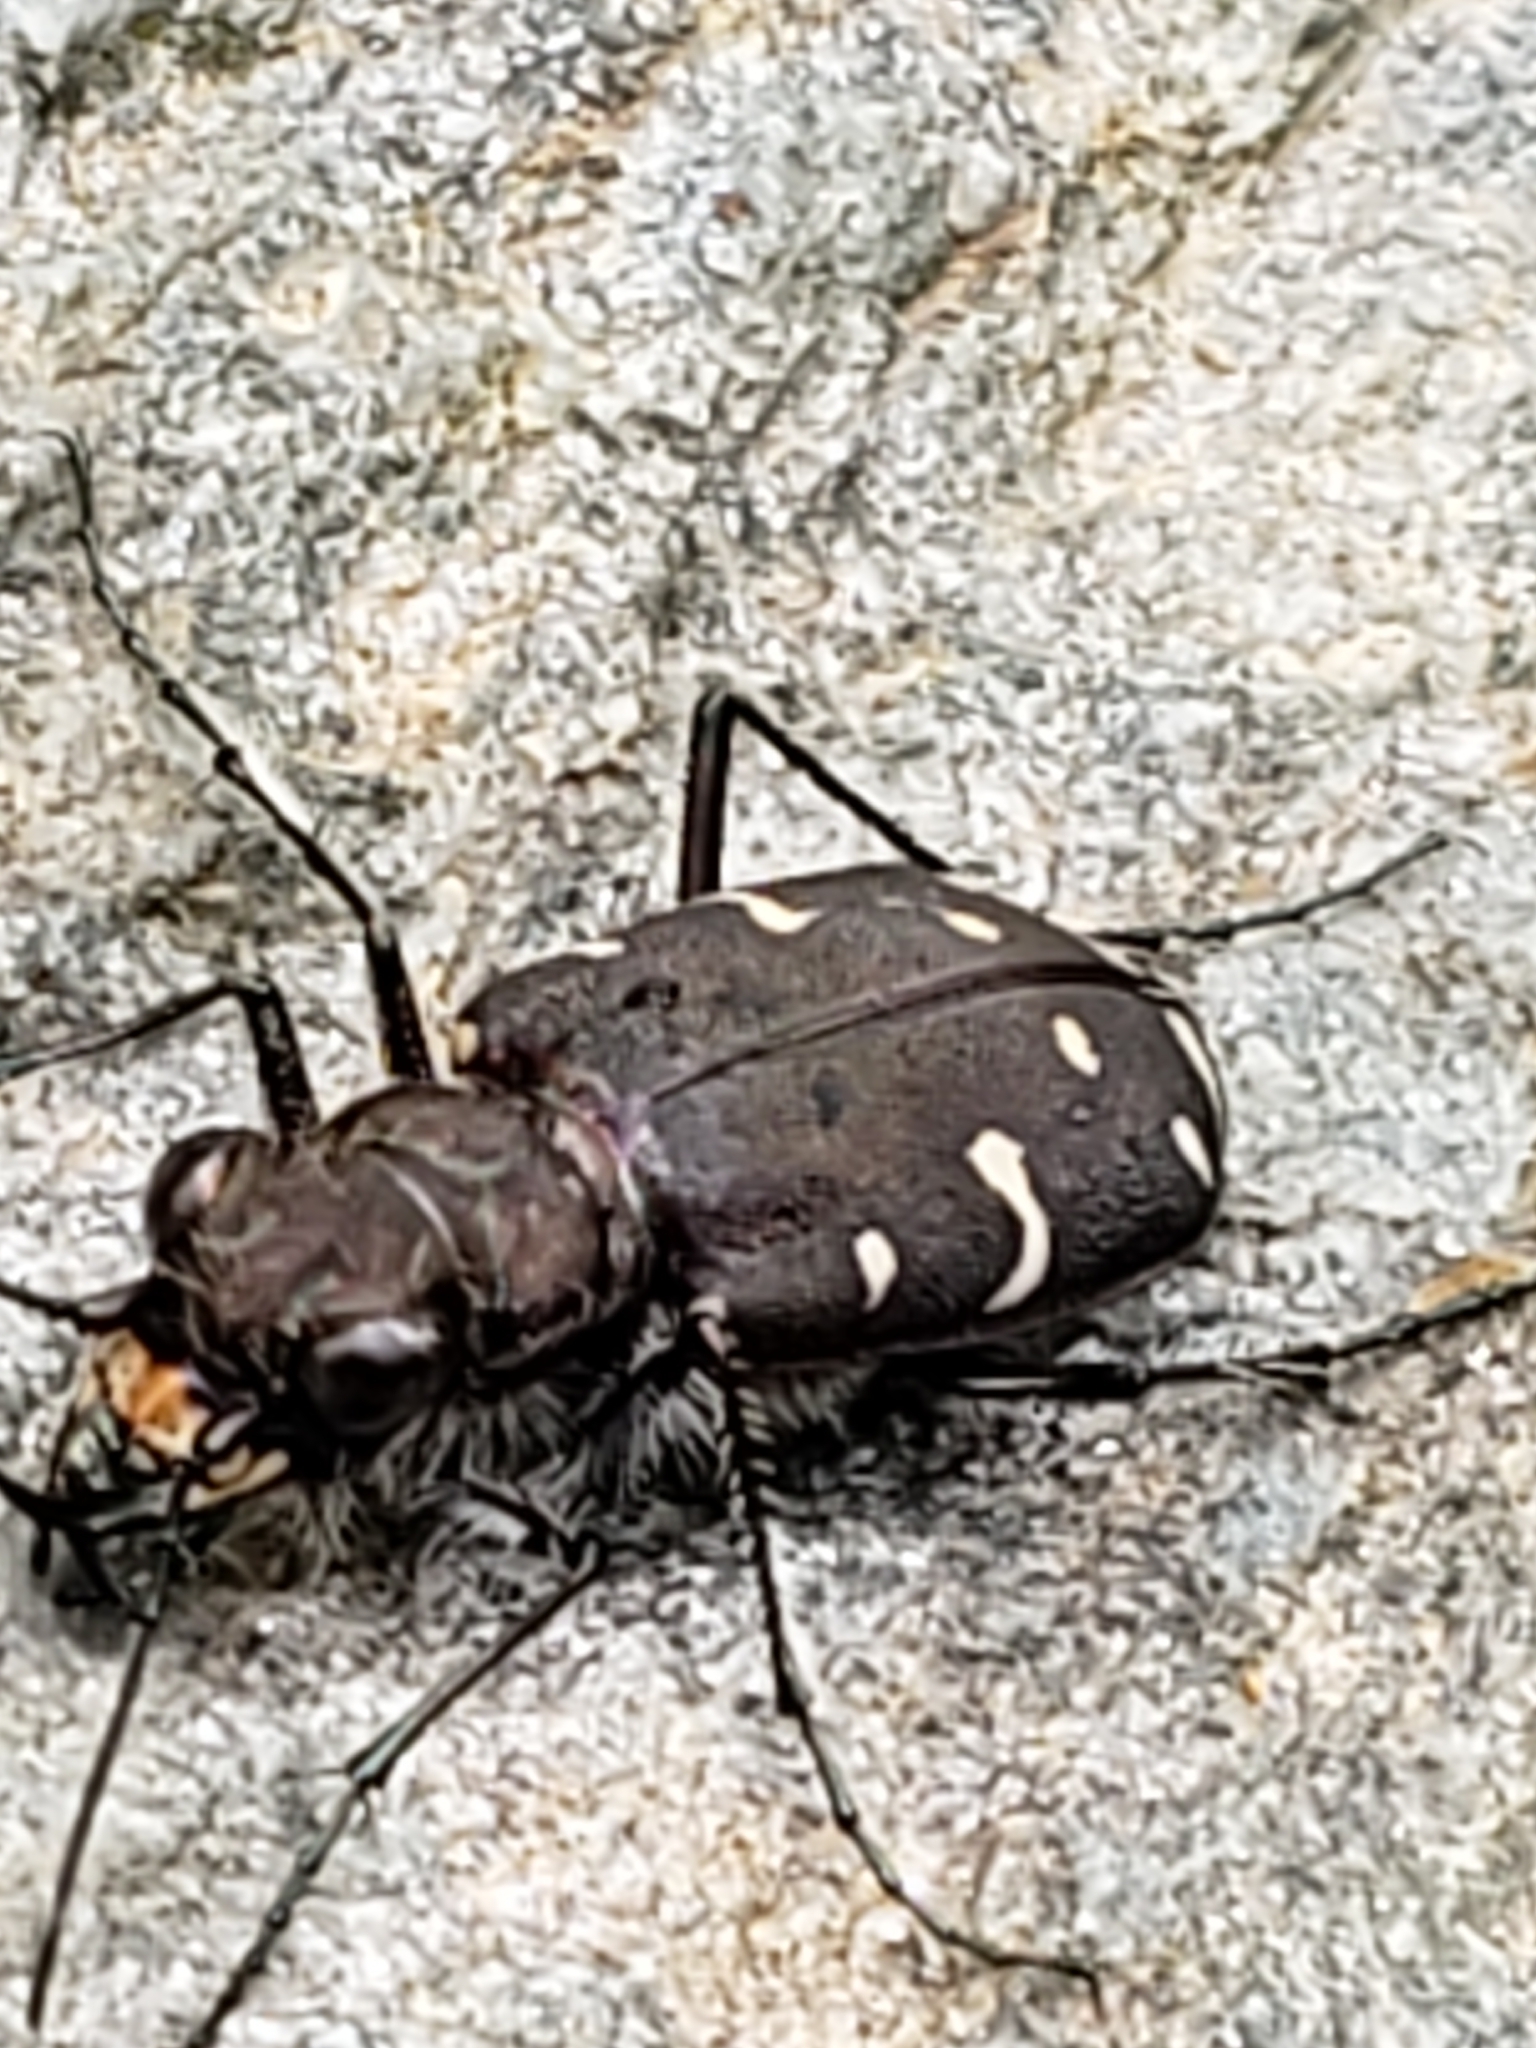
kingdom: Animalia
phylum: Arthropoda
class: Insecta
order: Coleoptera
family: Carabidae
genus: Cicindela
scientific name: Cicindela duodecimguttata
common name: Twelve-spotted tiger beetle
